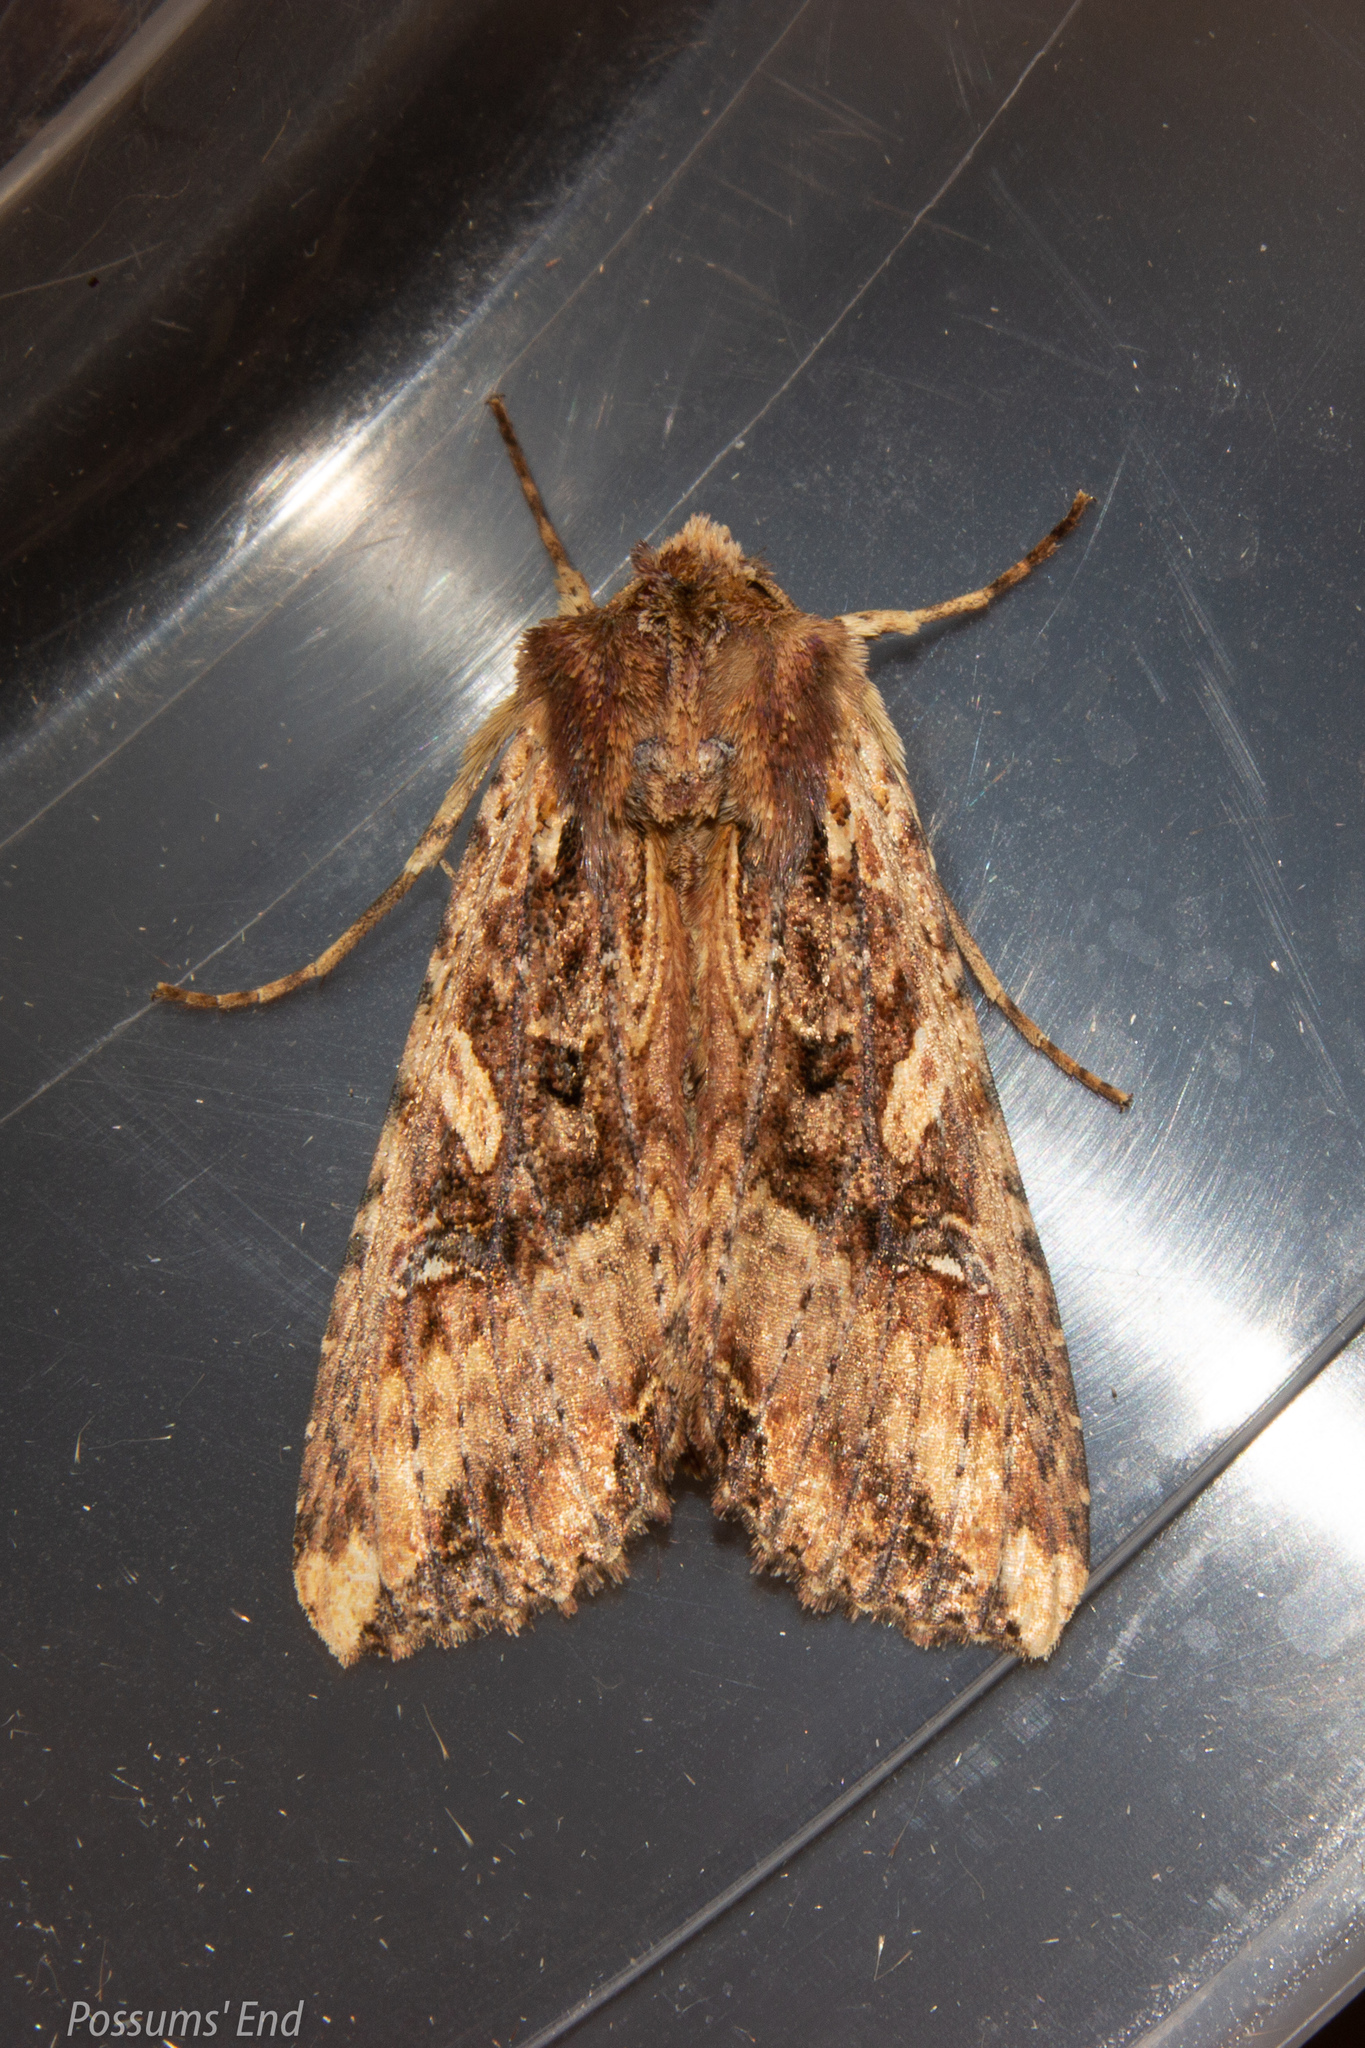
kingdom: Animalia
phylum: Arthropoda
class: Insecta
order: Lepidoptera
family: Noctuidae
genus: Meterana
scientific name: Meterana stipata
